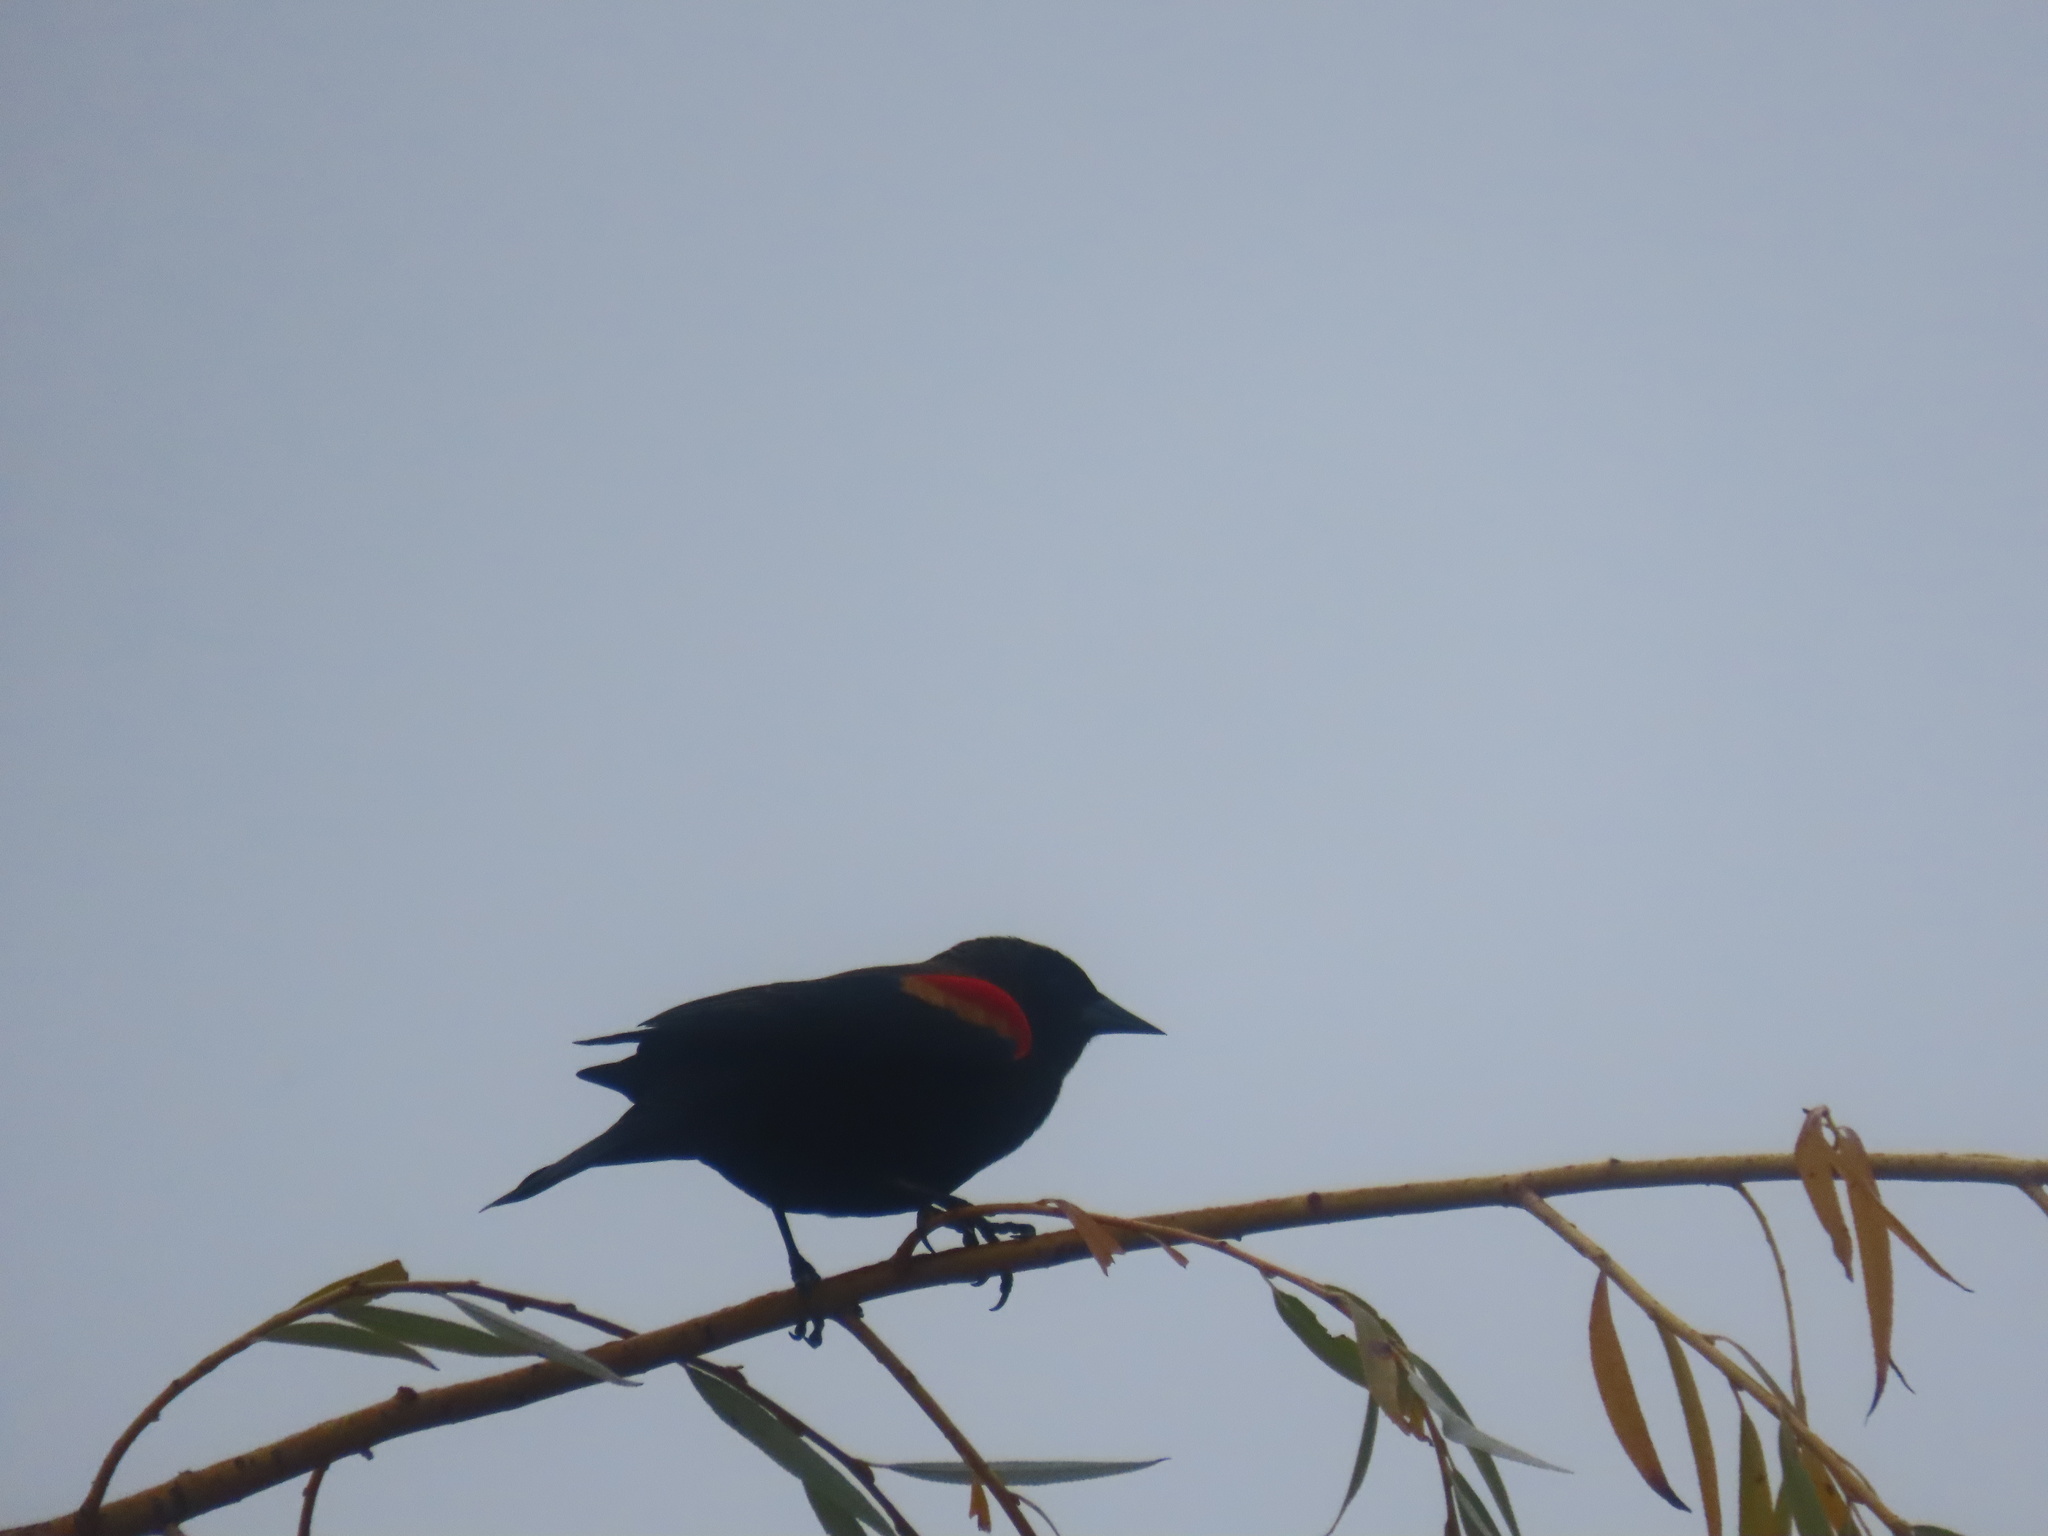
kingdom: Animalia
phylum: Chordata
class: Aves
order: Passeriformes
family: Icteridae
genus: Agelaius
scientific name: Agelaius phoeniceus
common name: Red-winged blackbird
